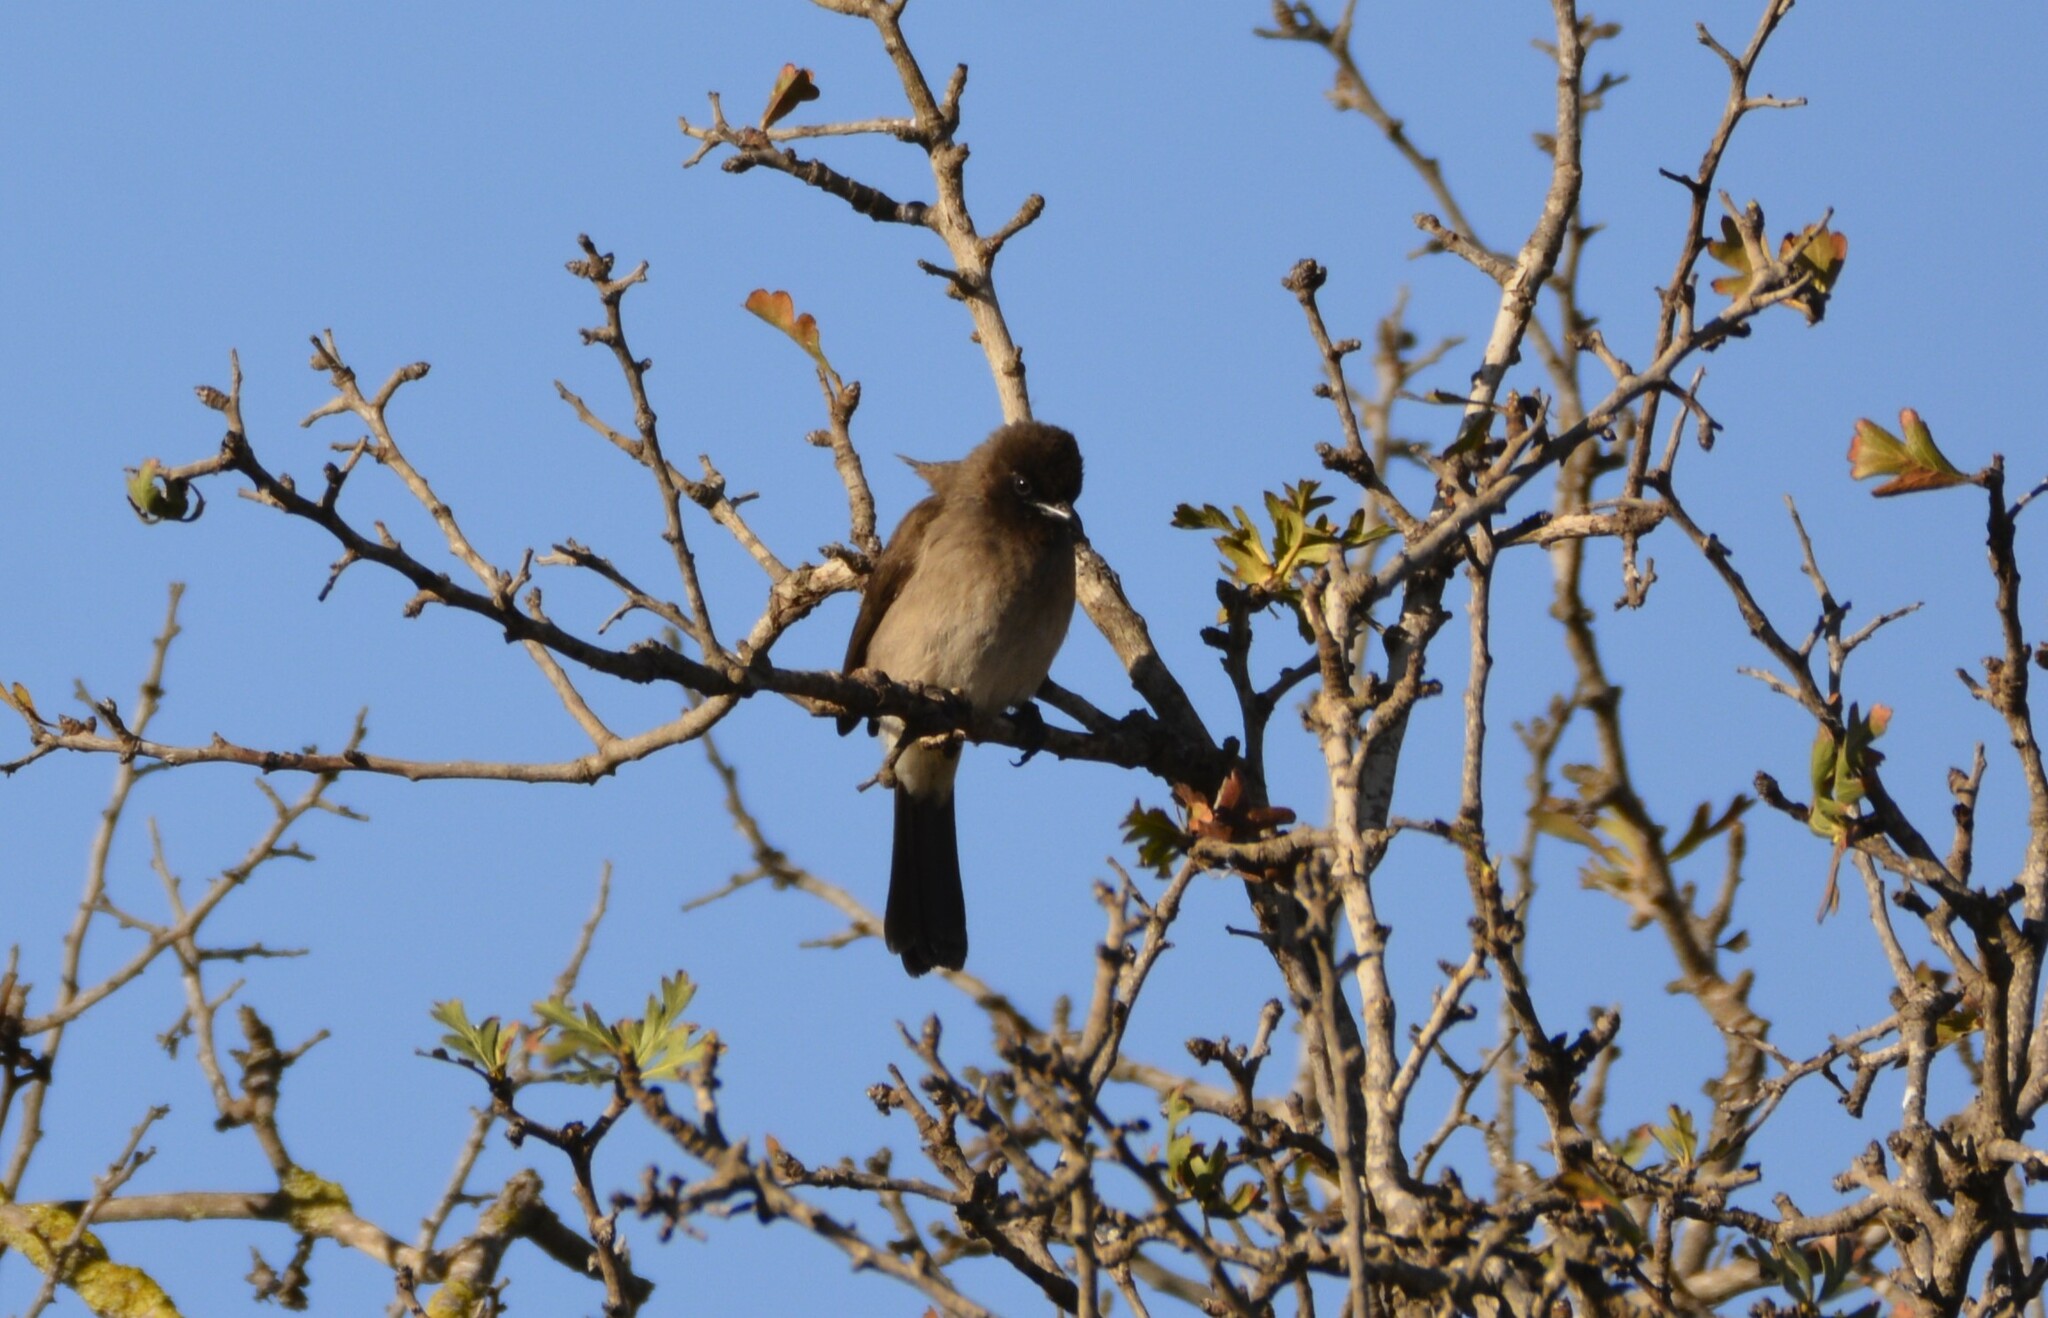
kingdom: Animalia
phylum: Chordata
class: Aves
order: Passeriformes
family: Pycnonotidae
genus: Pycnonotus
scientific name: Pycnonotus barbatus
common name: Common bulbul
